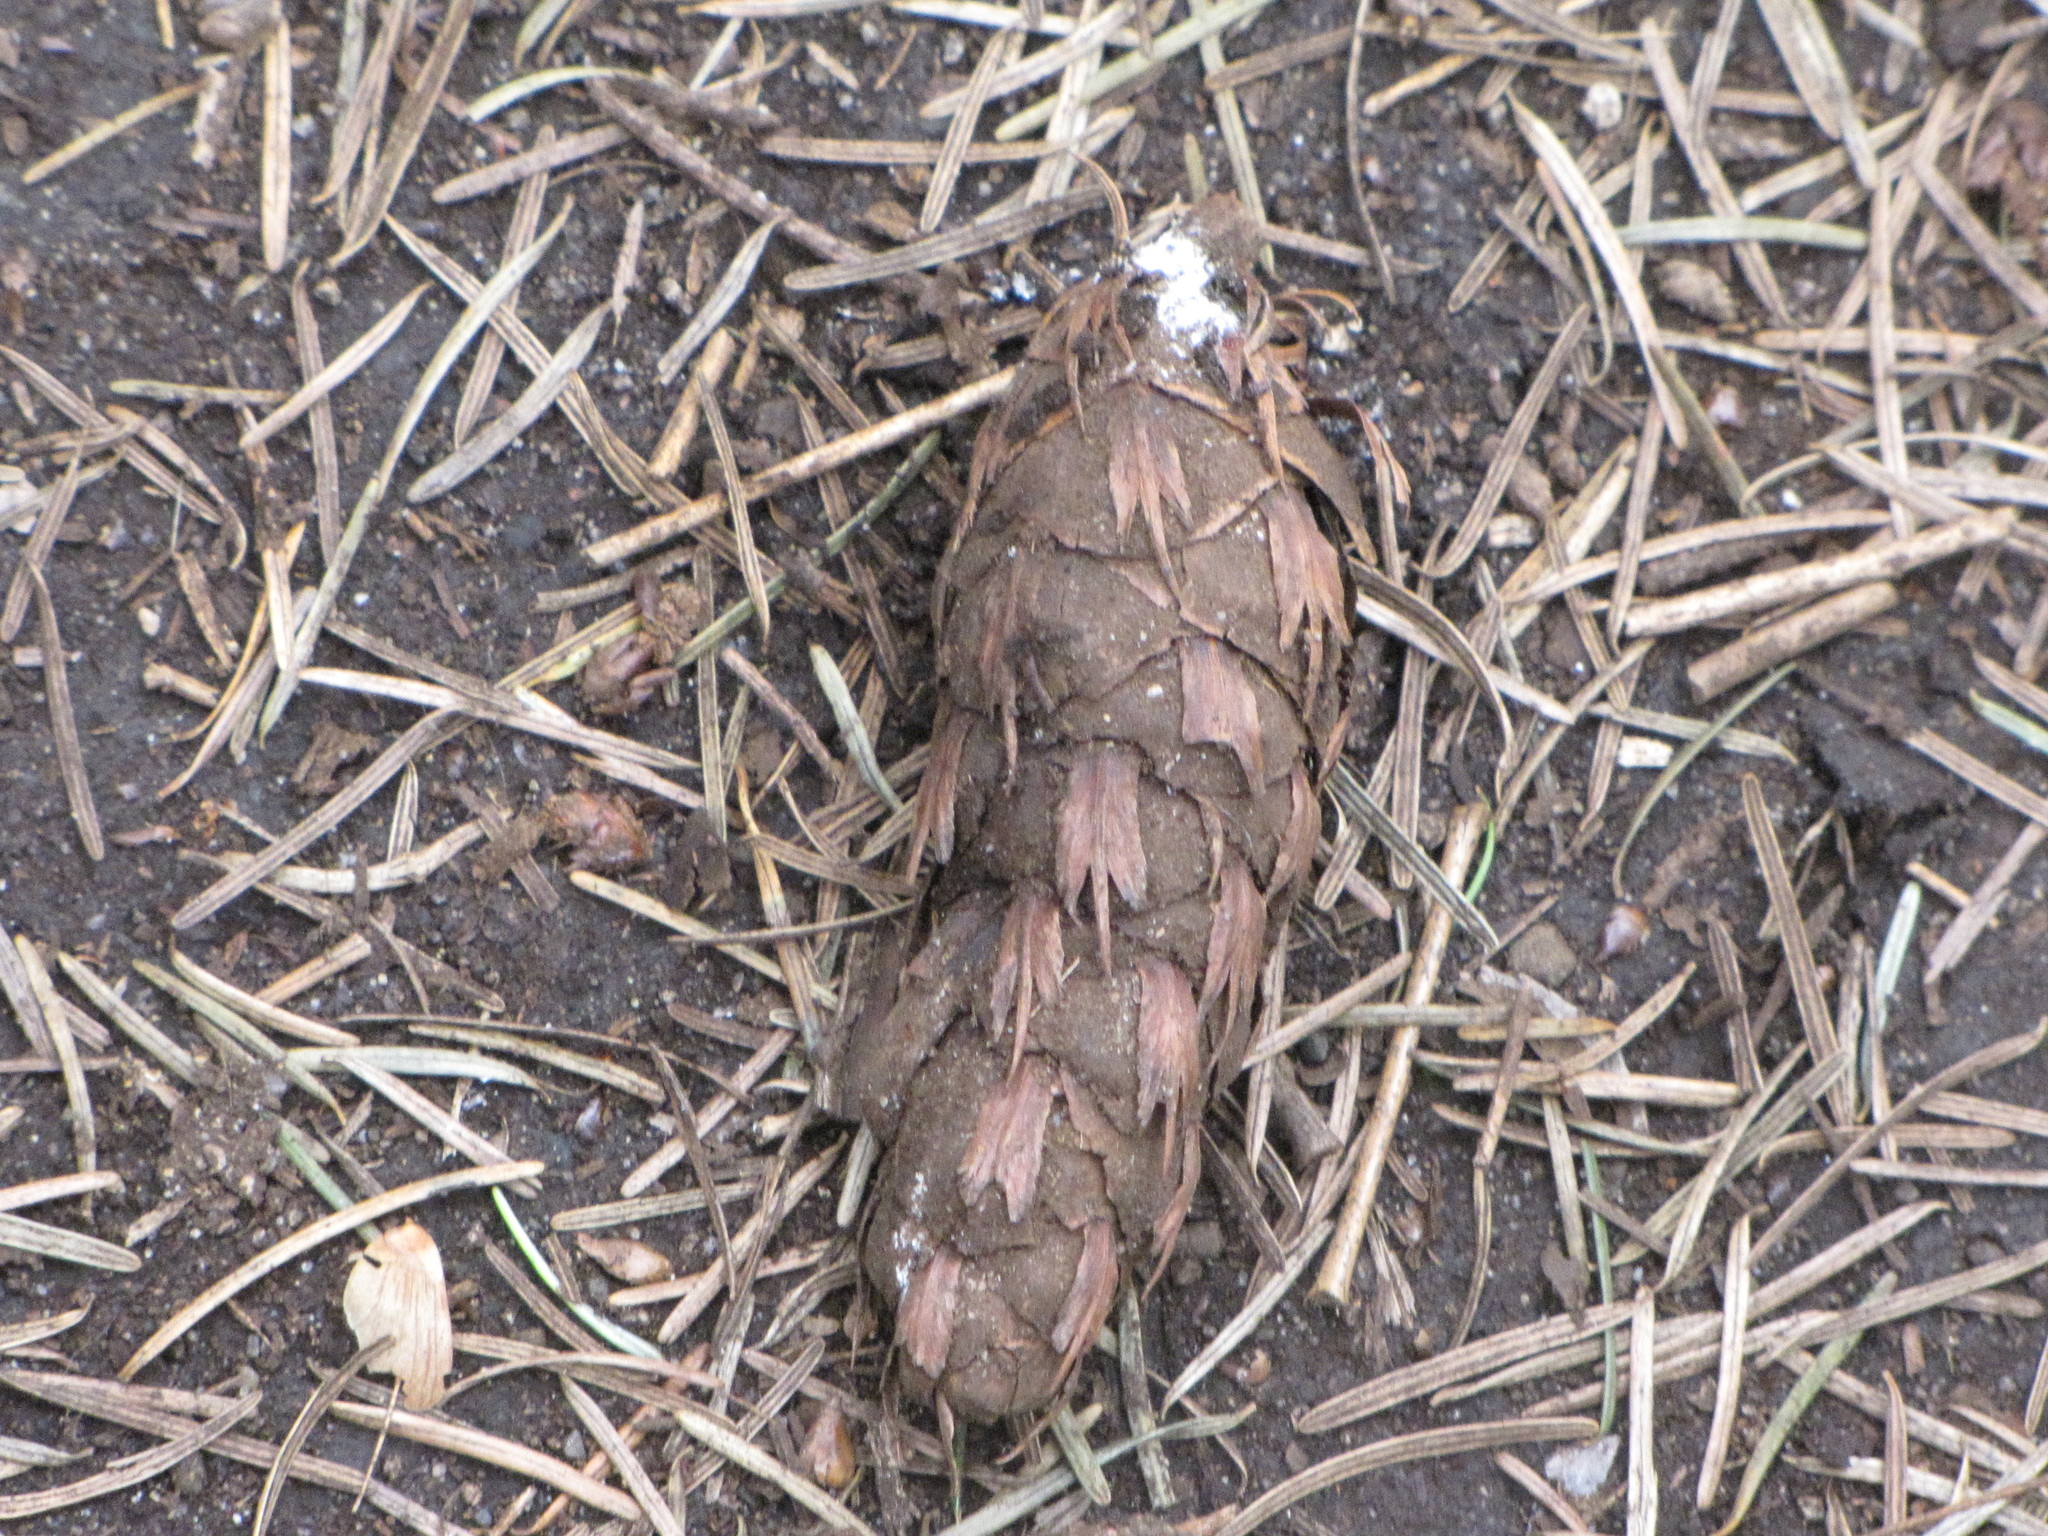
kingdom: Plantae
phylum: Tracheophyta
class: Pinopsida
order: Pinales
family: Pinaceae
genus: Pseudotsuga
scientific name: Pseudotsuga menziesii
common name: Douglas fir
